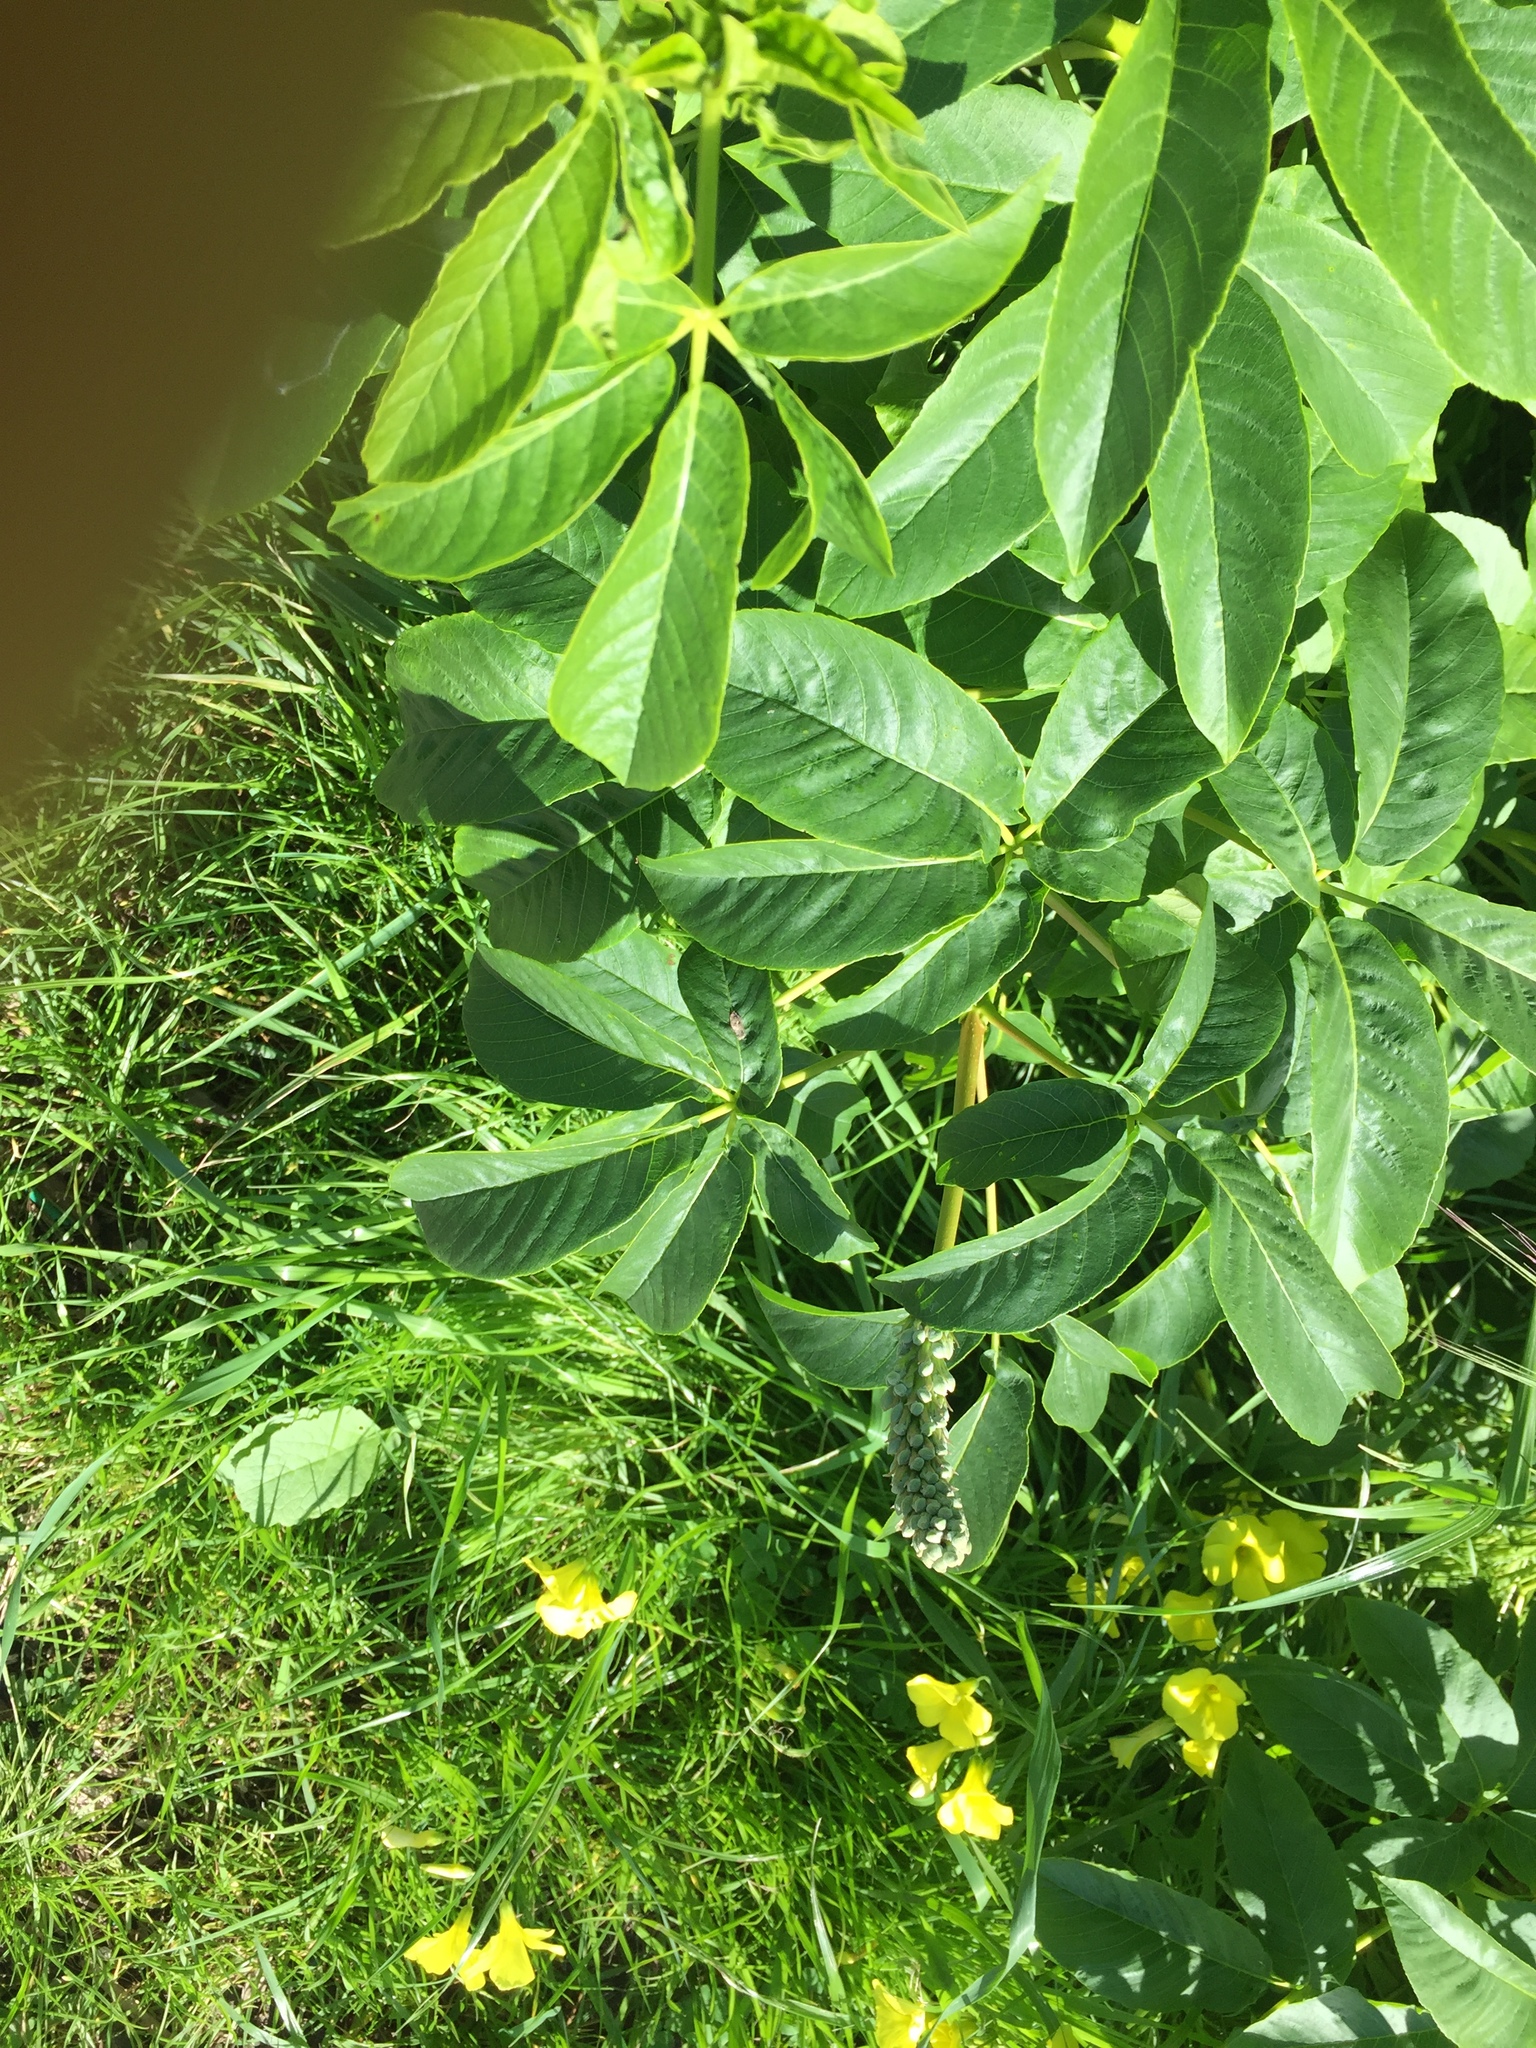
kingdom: Plantae
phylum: Tracheophyta
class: Magnoliopsida
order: Sapindales
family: Sapindaceae
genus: Aesculus
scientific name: Aesculus californica
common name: California buckeye
